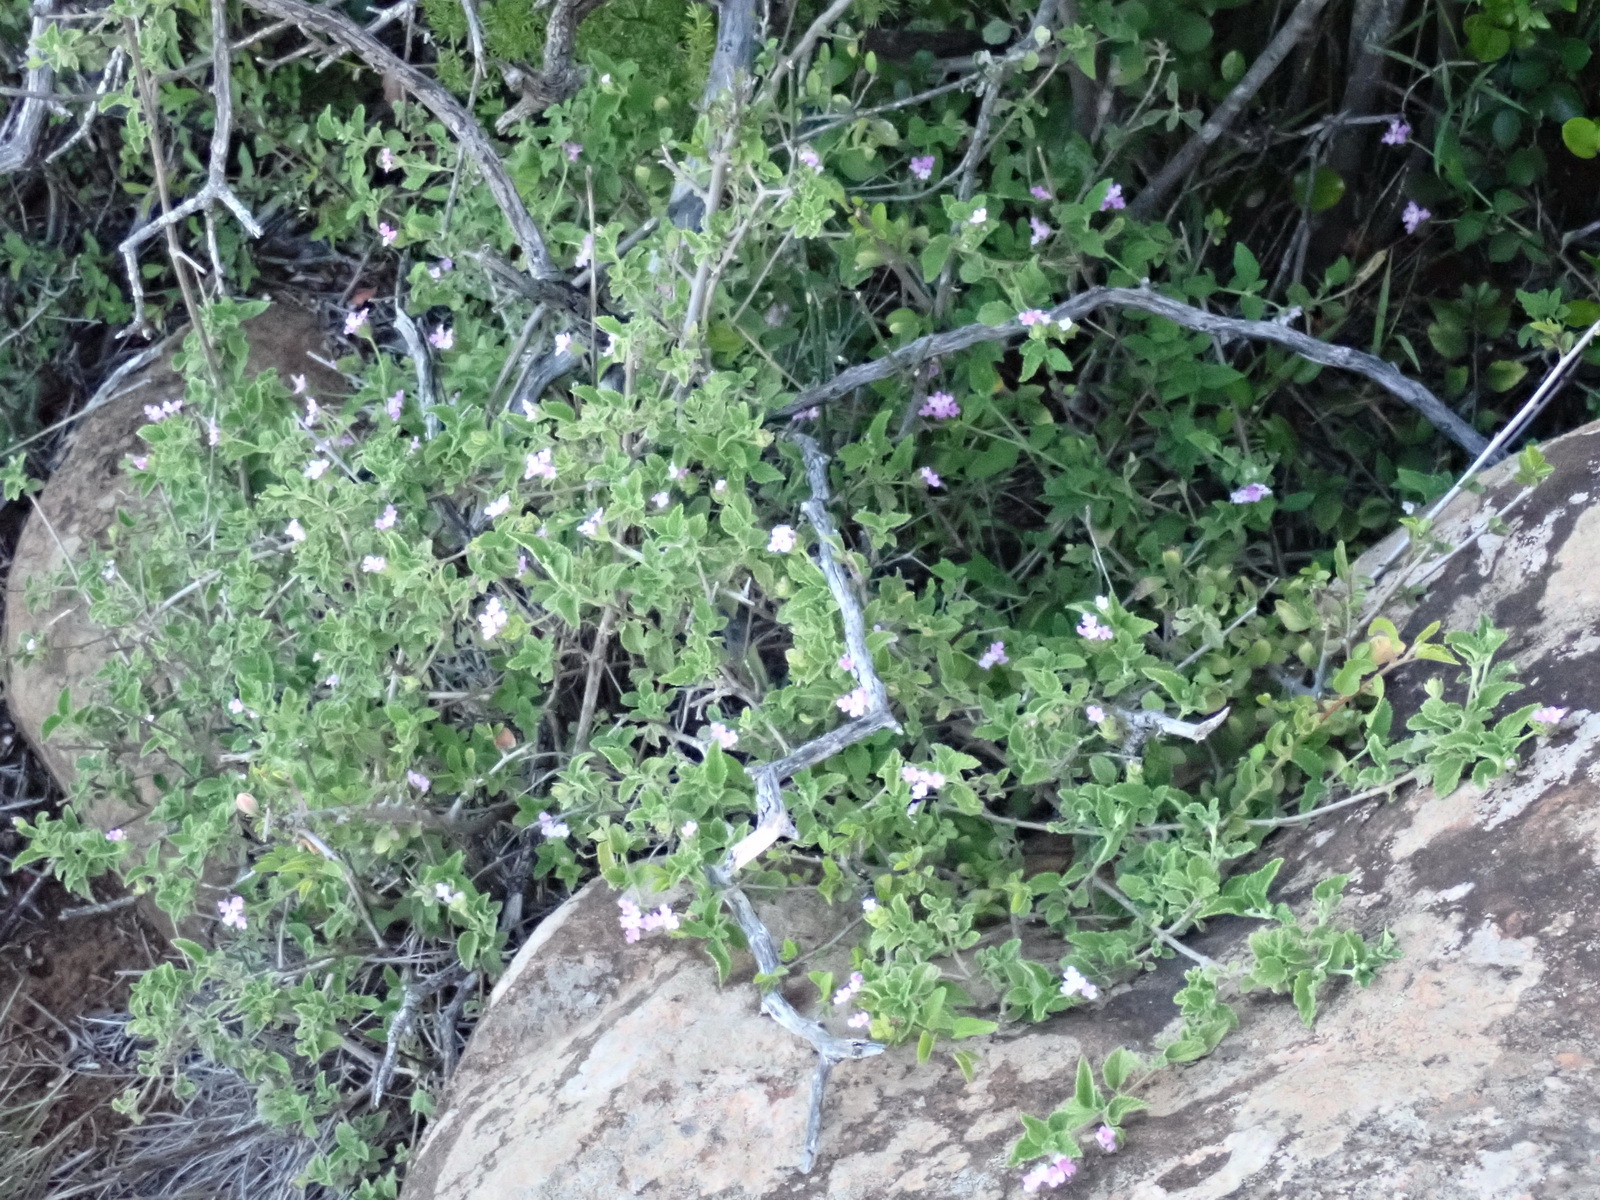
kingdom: Plantae
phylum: Tracheophyta
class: Magnoliopsida
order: Lamiales
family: Verbenaceae
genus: Lantana
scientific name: Lantana rugosa
